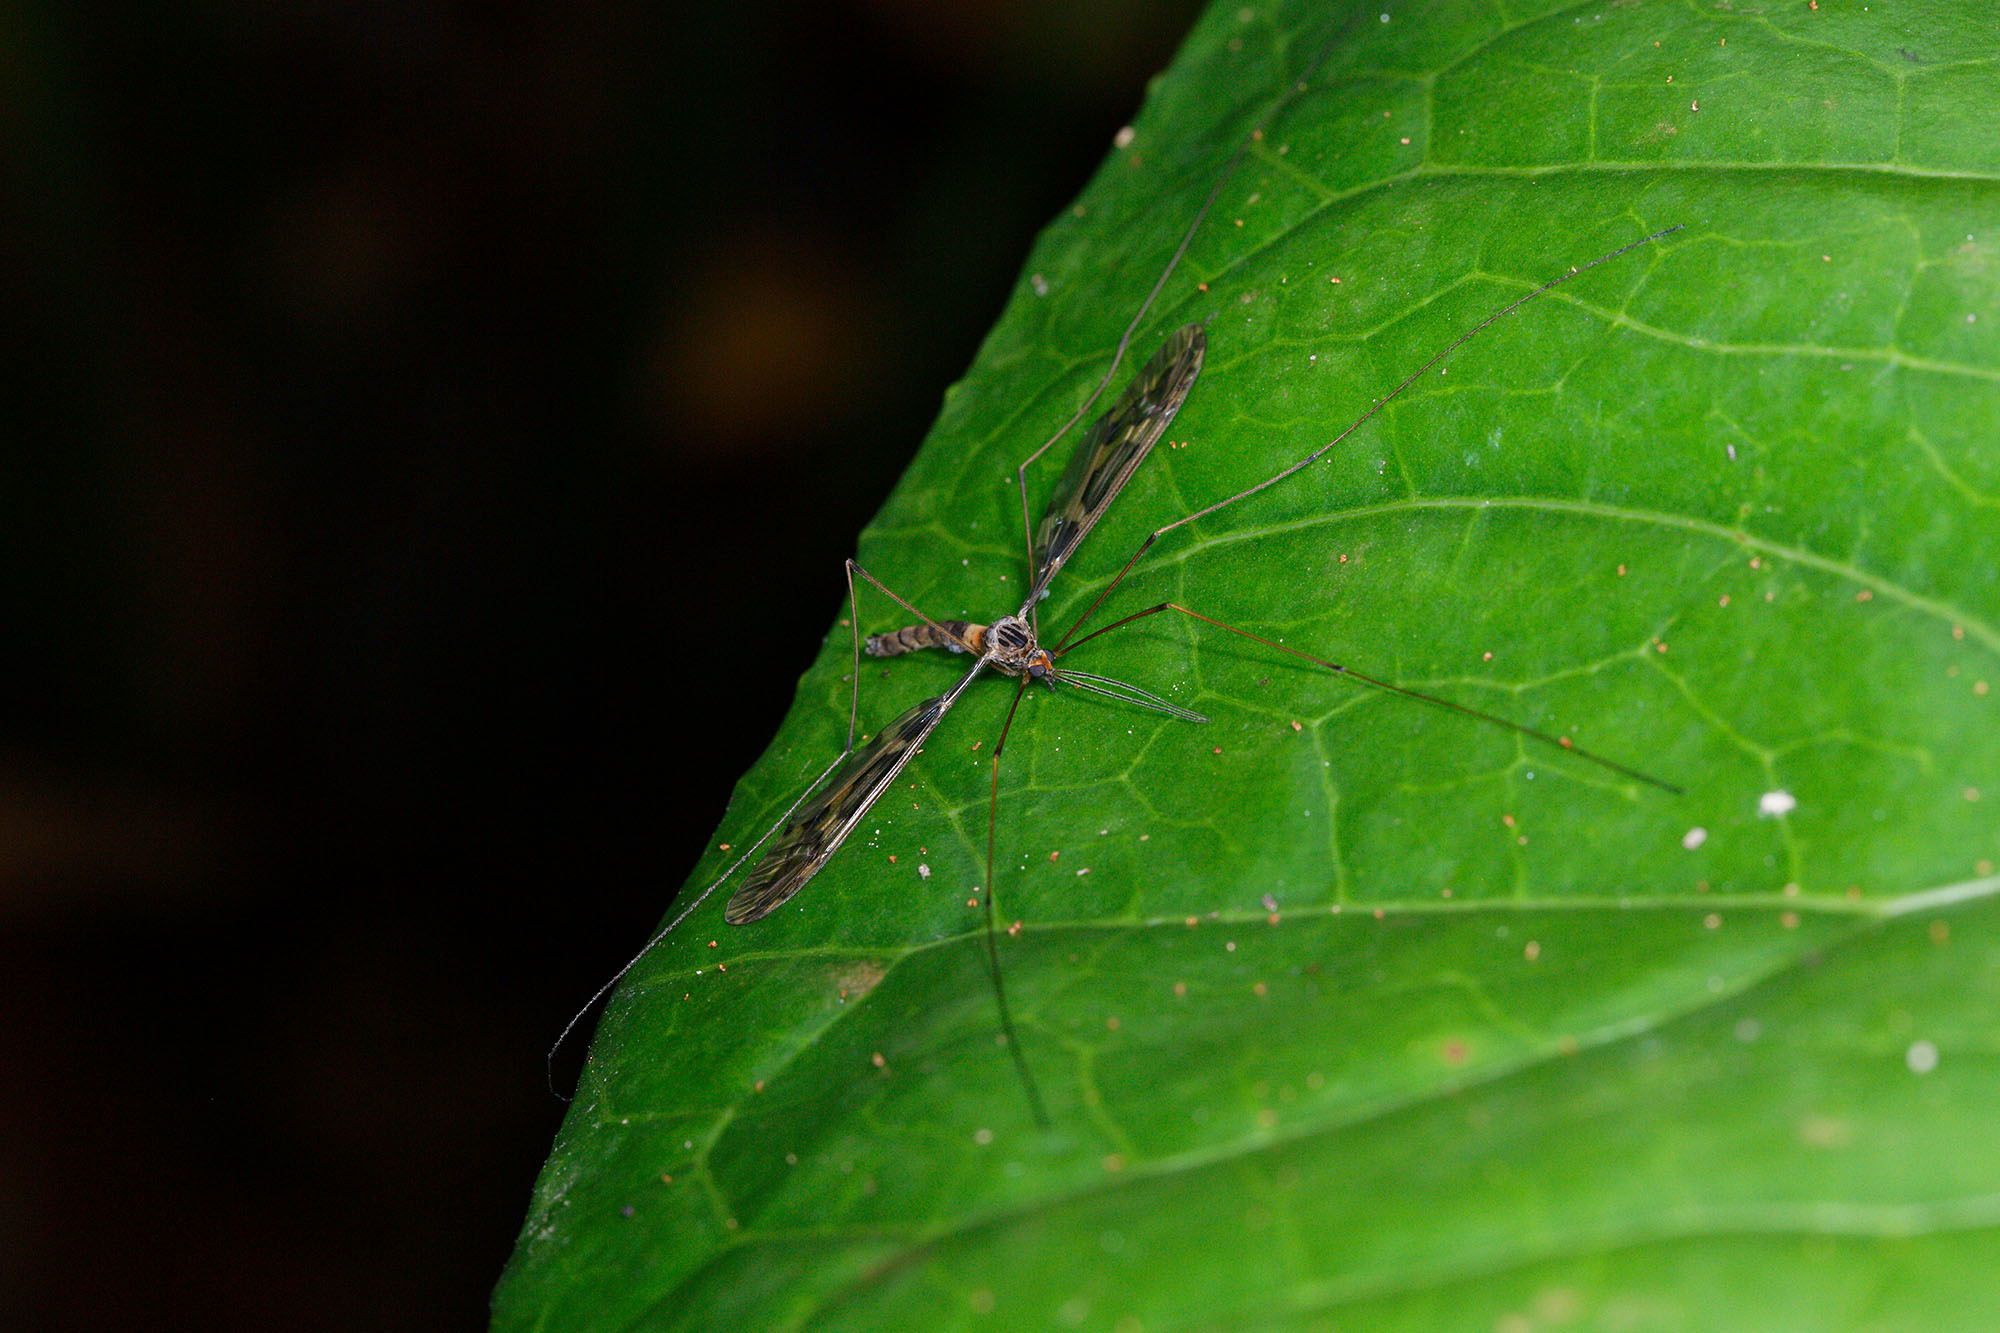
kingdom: Animalia
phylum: Arthropoda
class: Insecta
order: Diptera
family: Tipulidae
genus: Leptotarsus
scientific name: Leptotarsus binotatus
